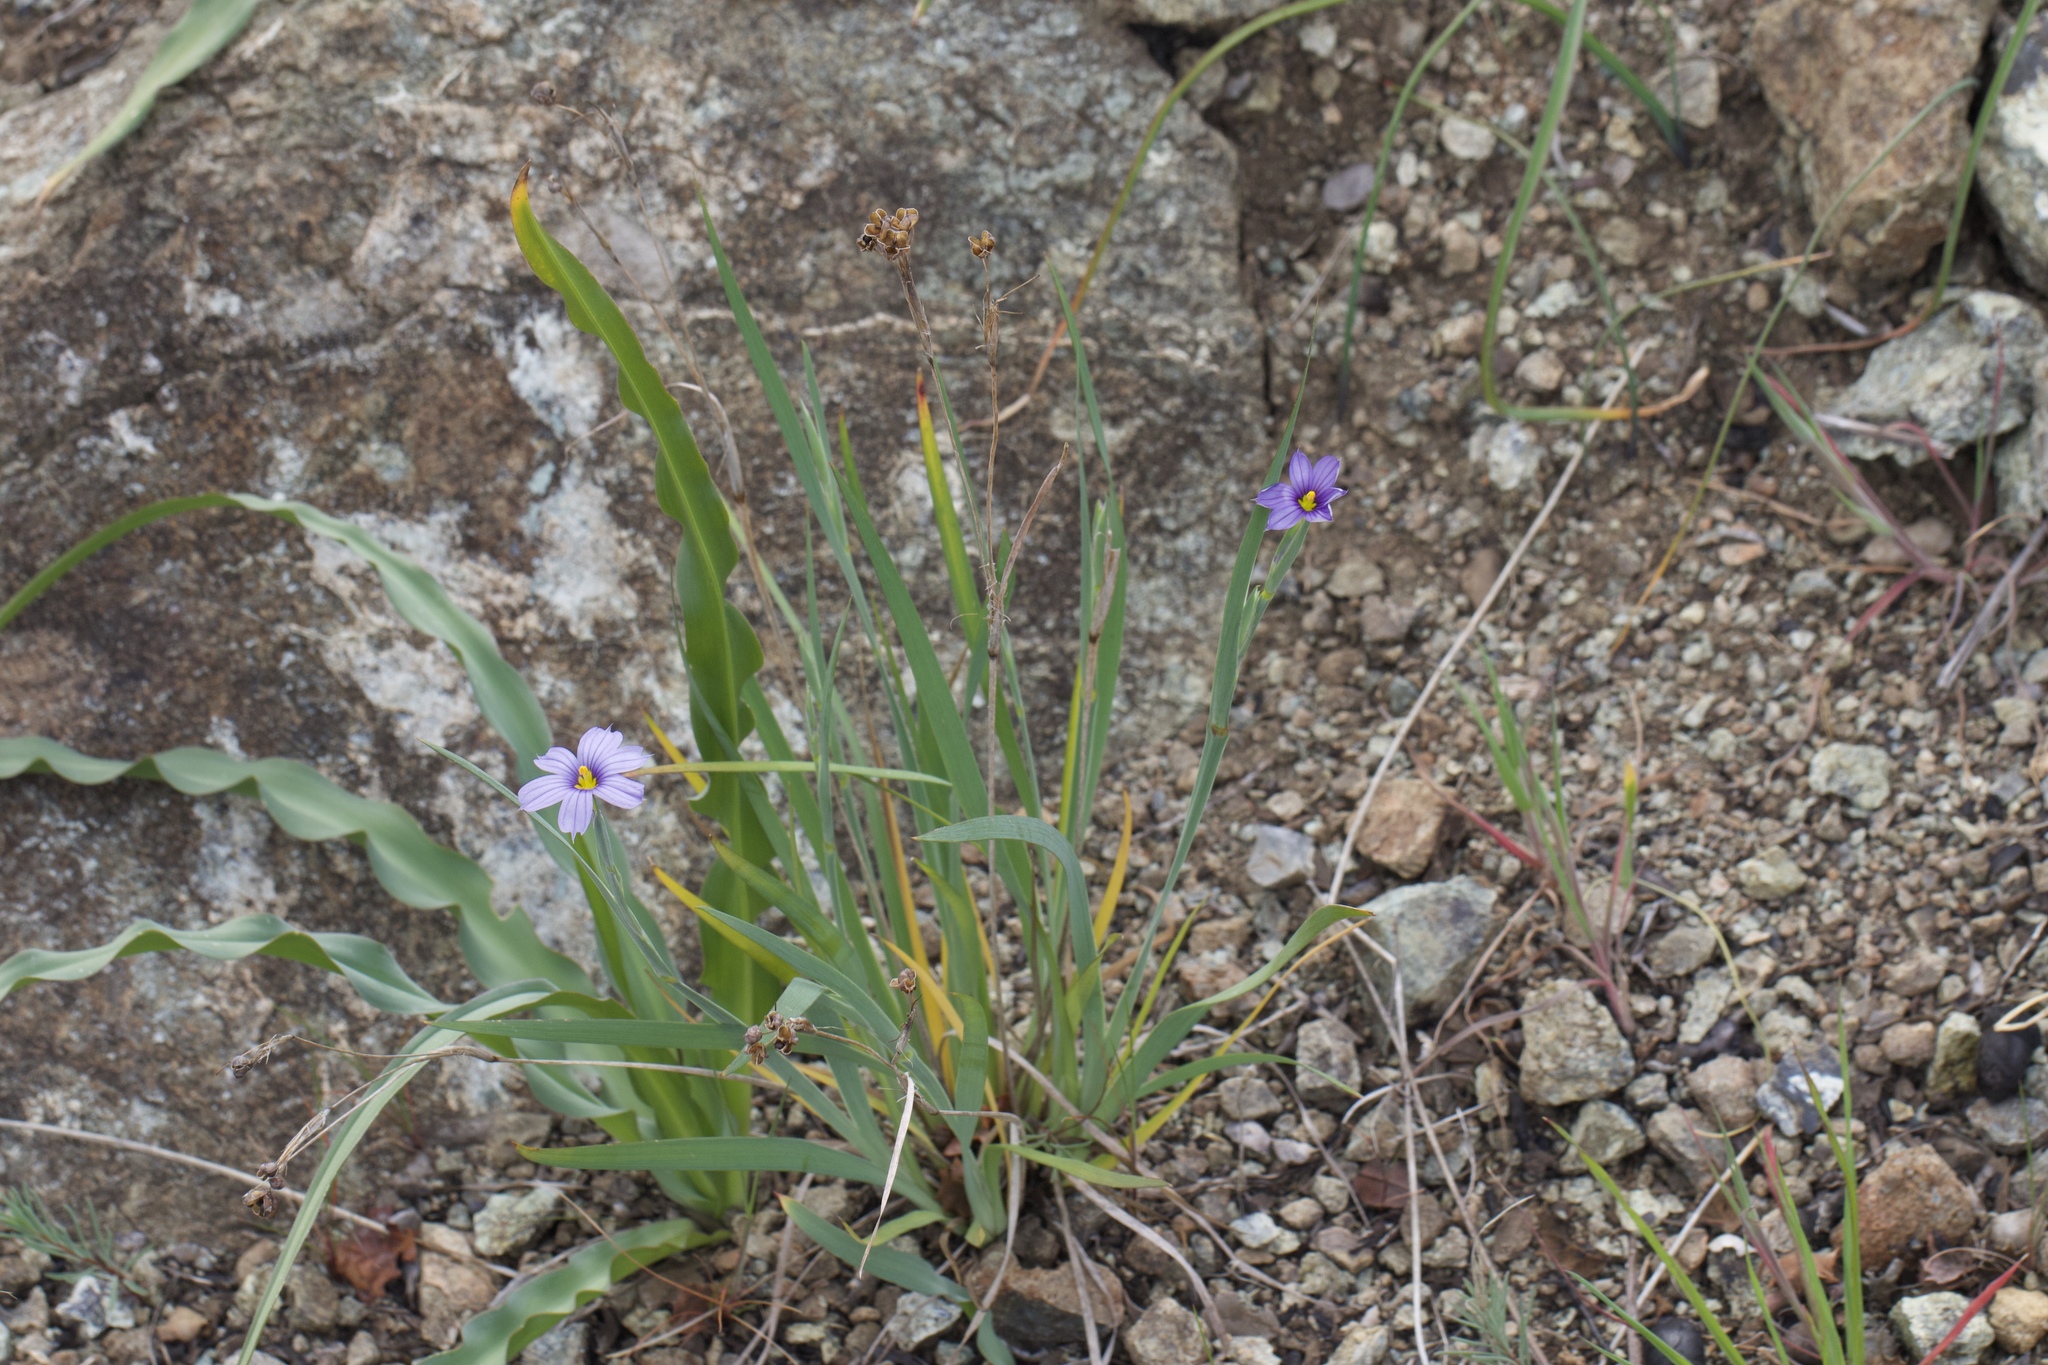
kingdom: Plantae
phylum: Tracheophyta
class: Liliopsida
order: Asparagales
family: Iridaceae
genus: Sisyrinchium
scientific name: Sisyrinchium bellum
